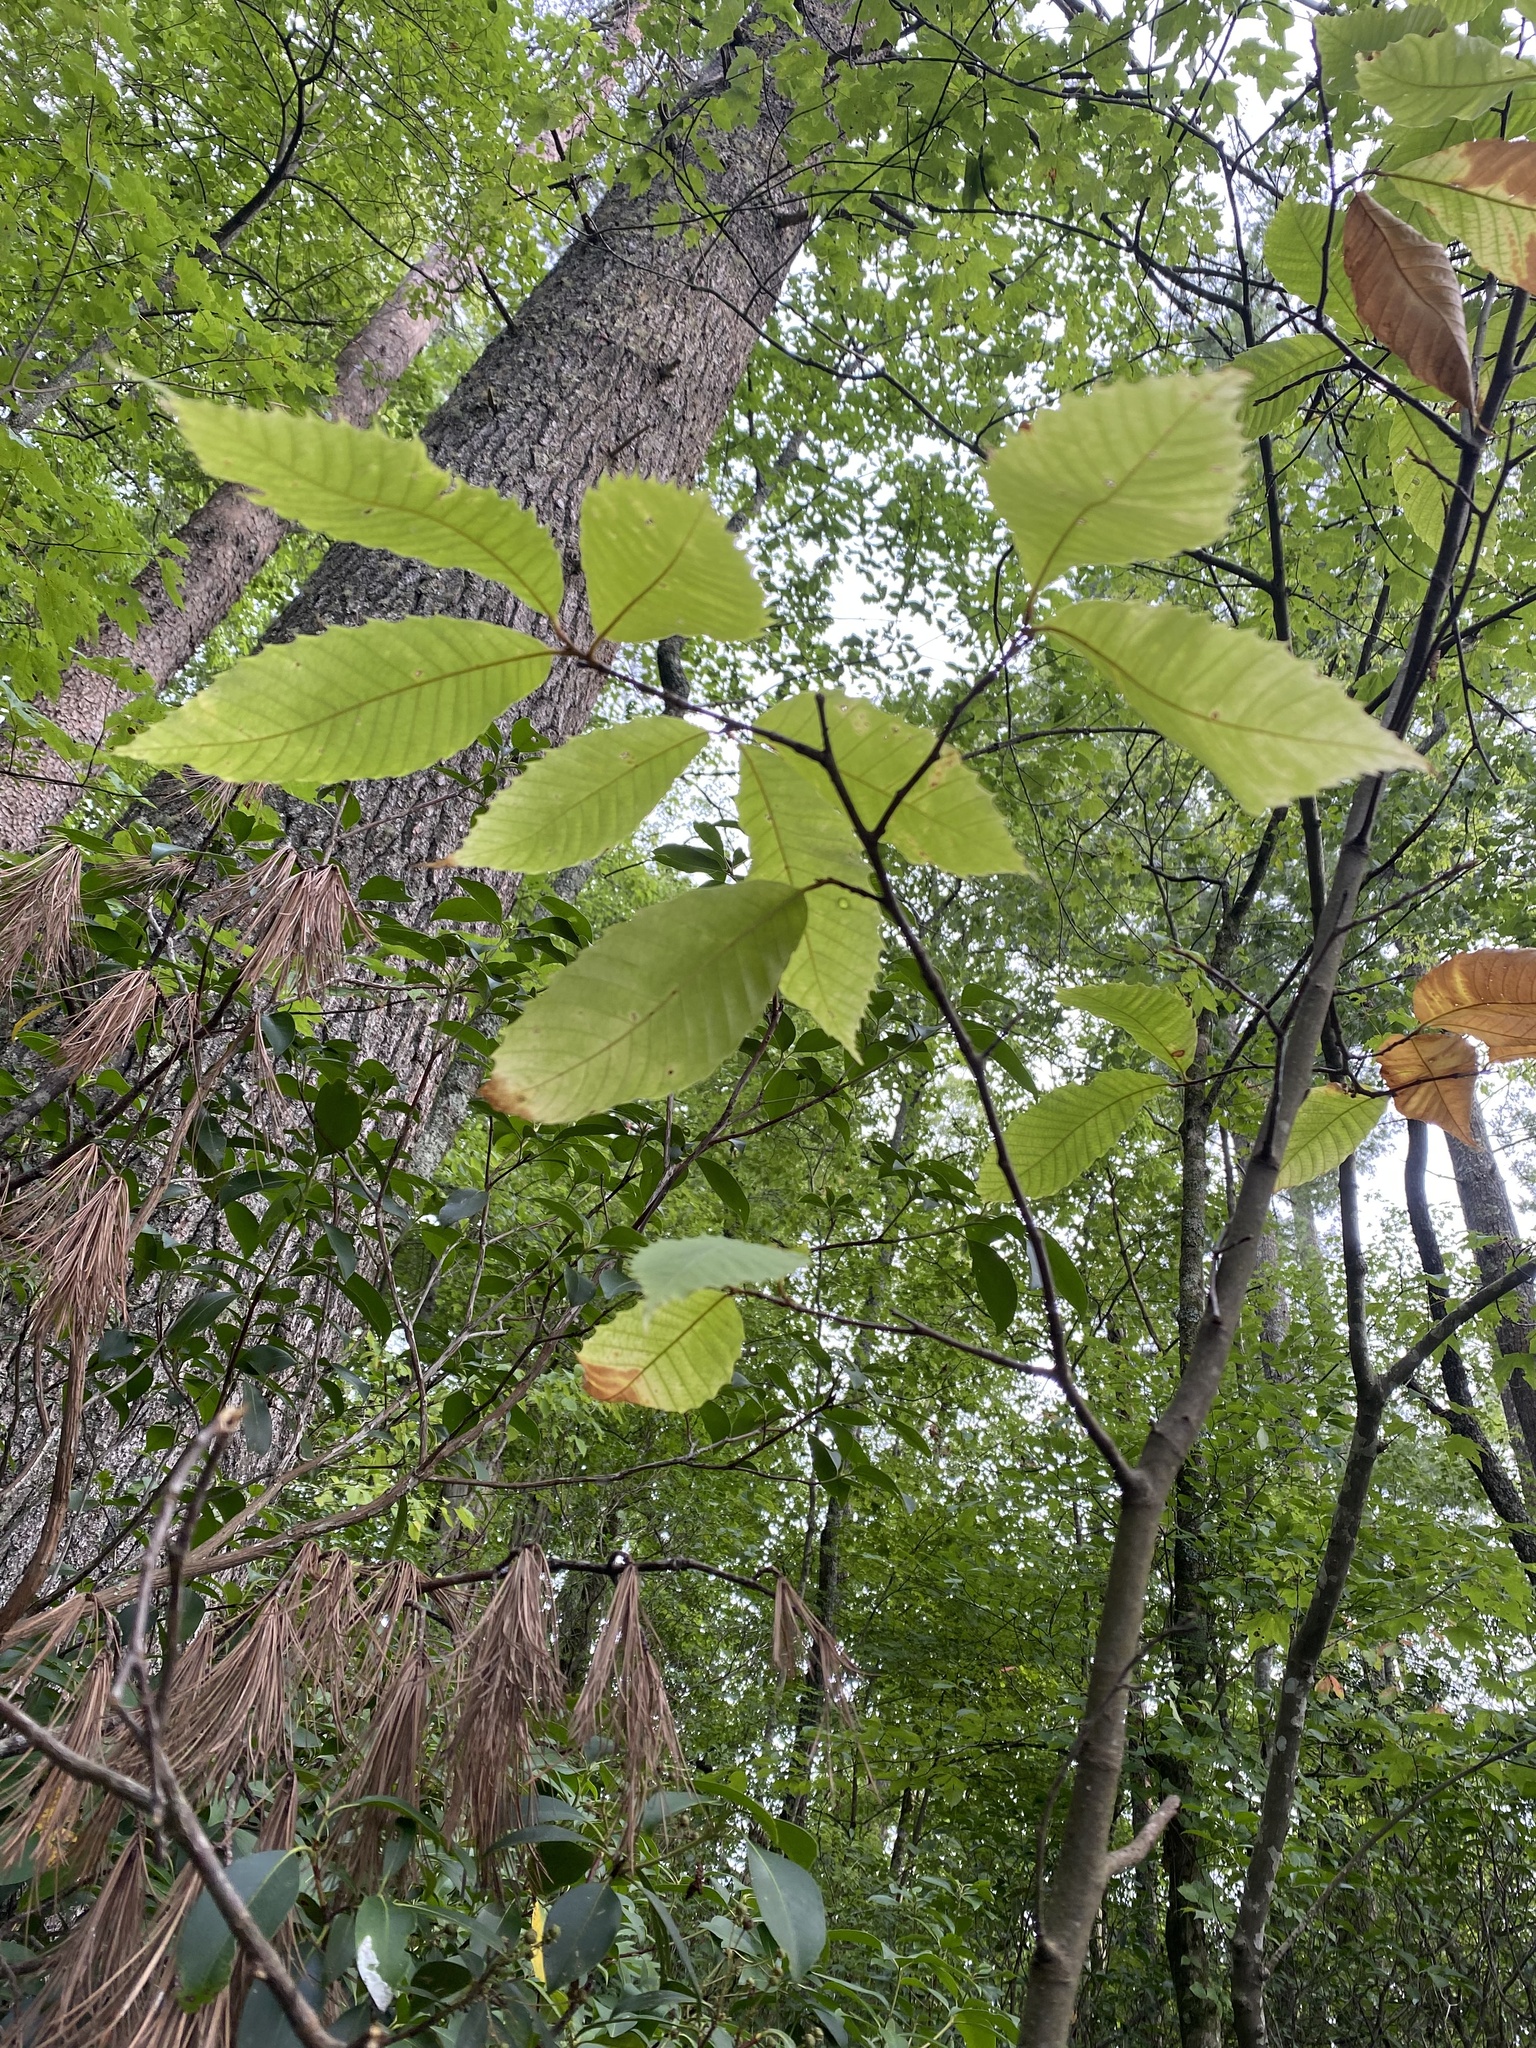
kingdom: Plantae
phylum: Tracheophyta
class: Magnoliopsida
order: Fagales
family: Fagaceae
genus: Castanea
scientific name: Castanea dentata
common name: American chestnut
